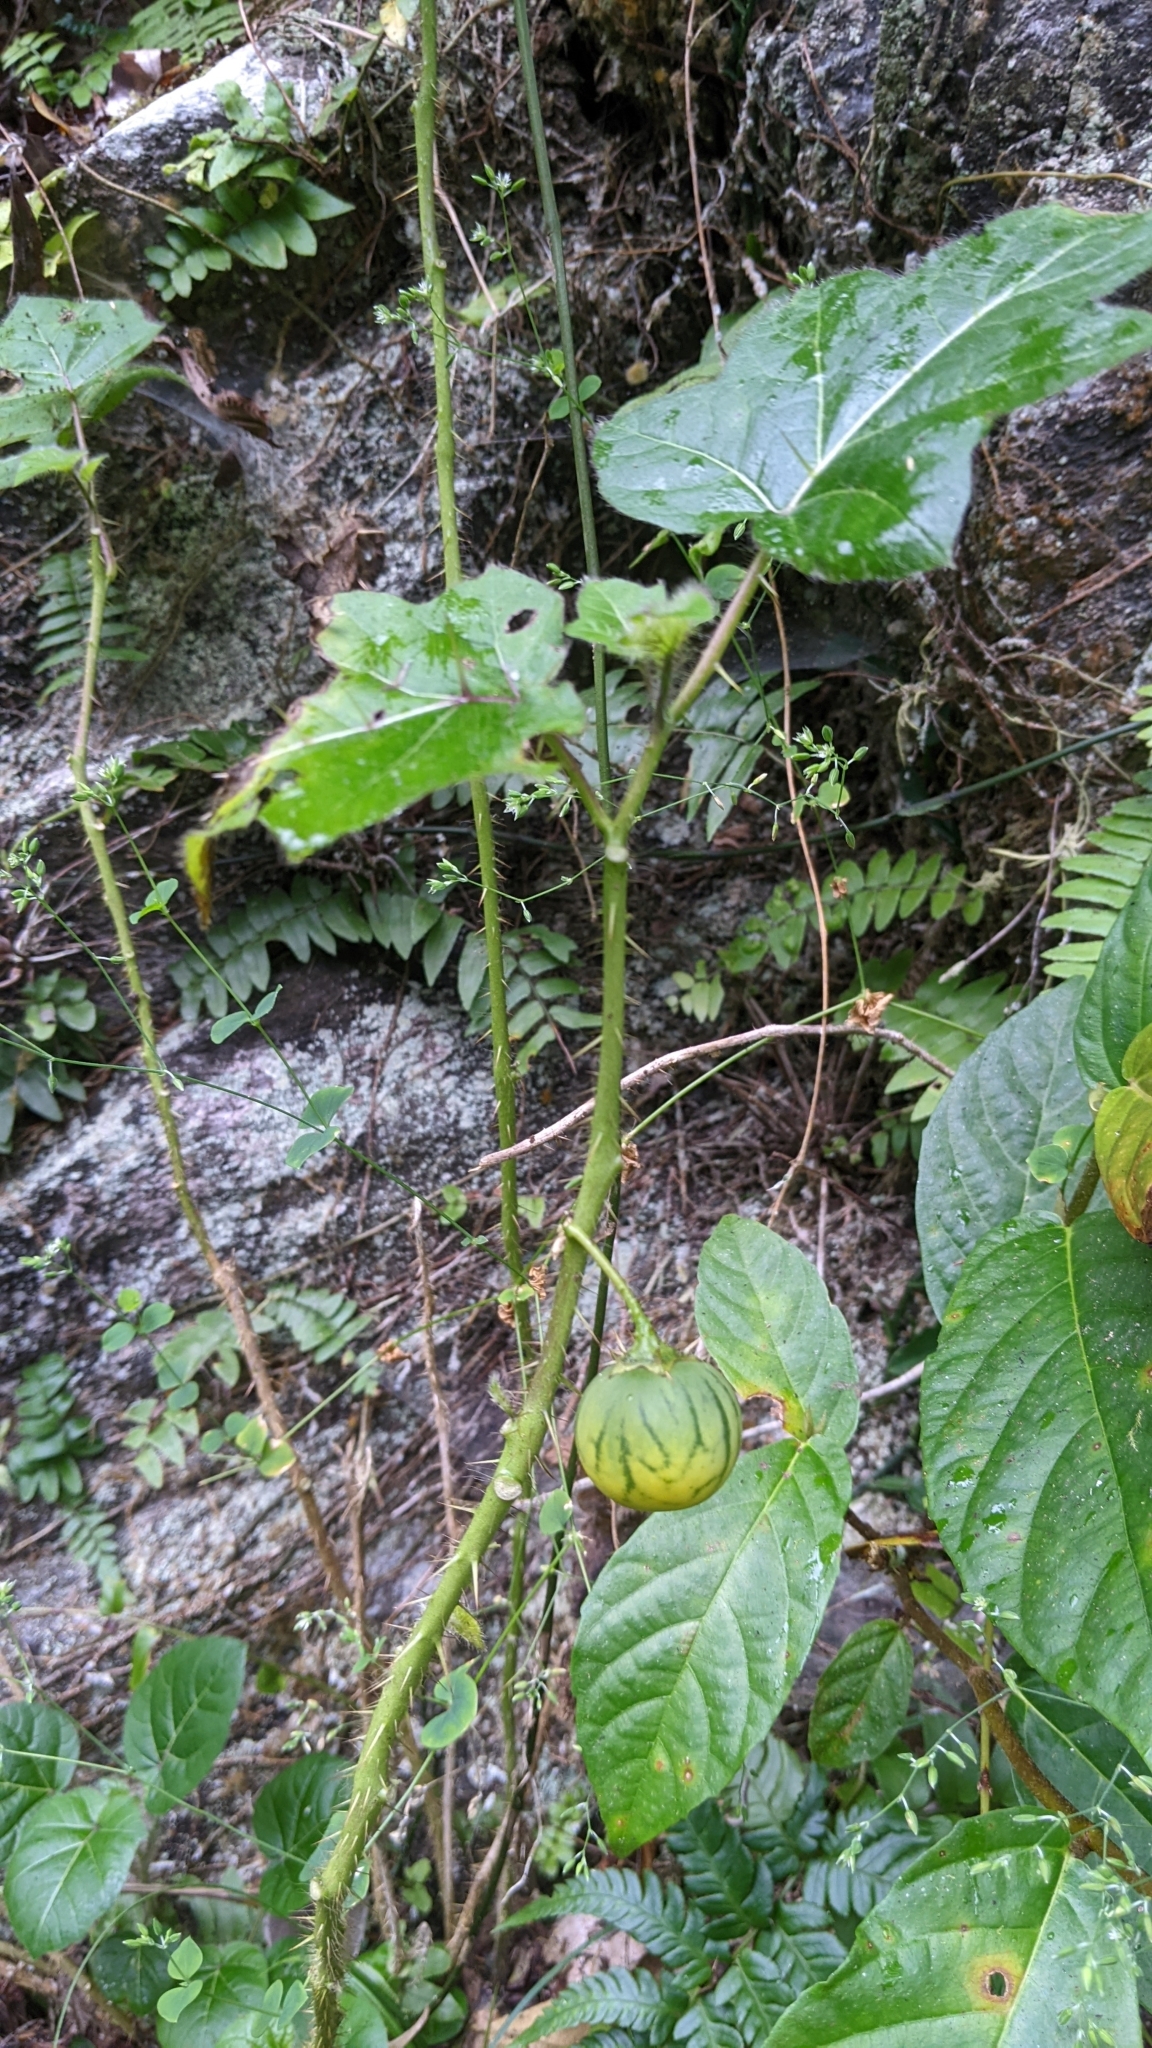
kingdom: Plantae
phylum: Tracheophyta
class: Magnoliopsida
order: Solanales
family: Solanaceae
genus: Solanum
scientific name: Solanum capsicoides
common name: Cockroach berry
